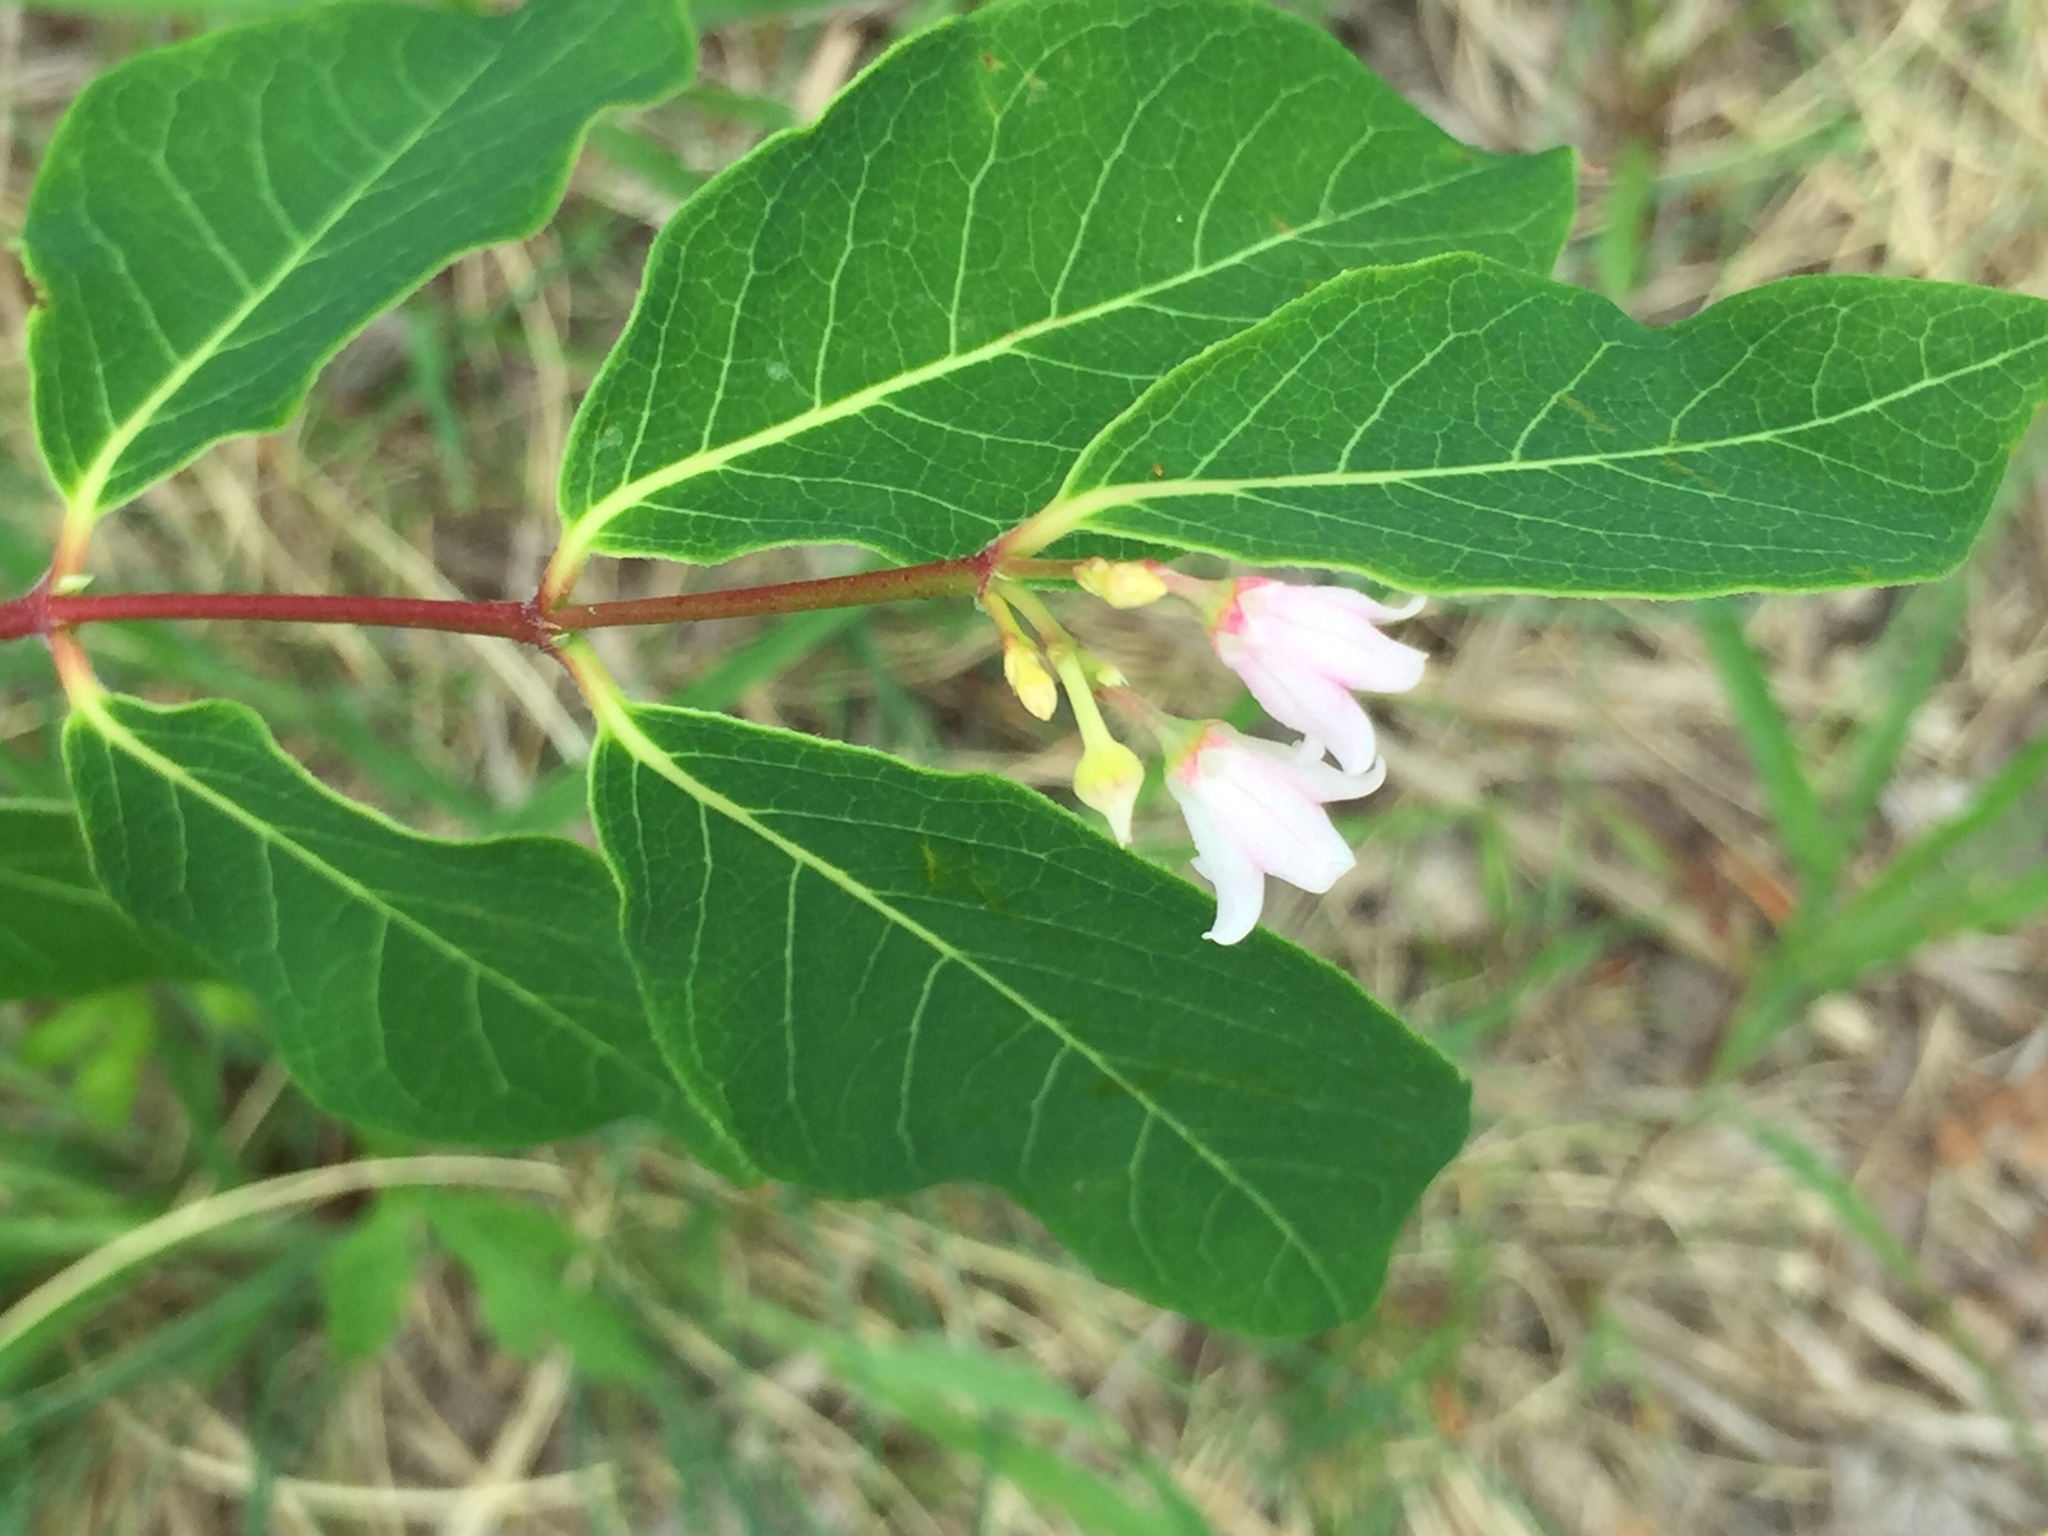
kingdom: Plantae
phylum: Tracheophyta
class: Magnoliopsida
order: Gentianales
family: Apocynaceae
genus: Apocynum
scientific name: Apocynum androsaemifolium
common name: Spreading dogbane
